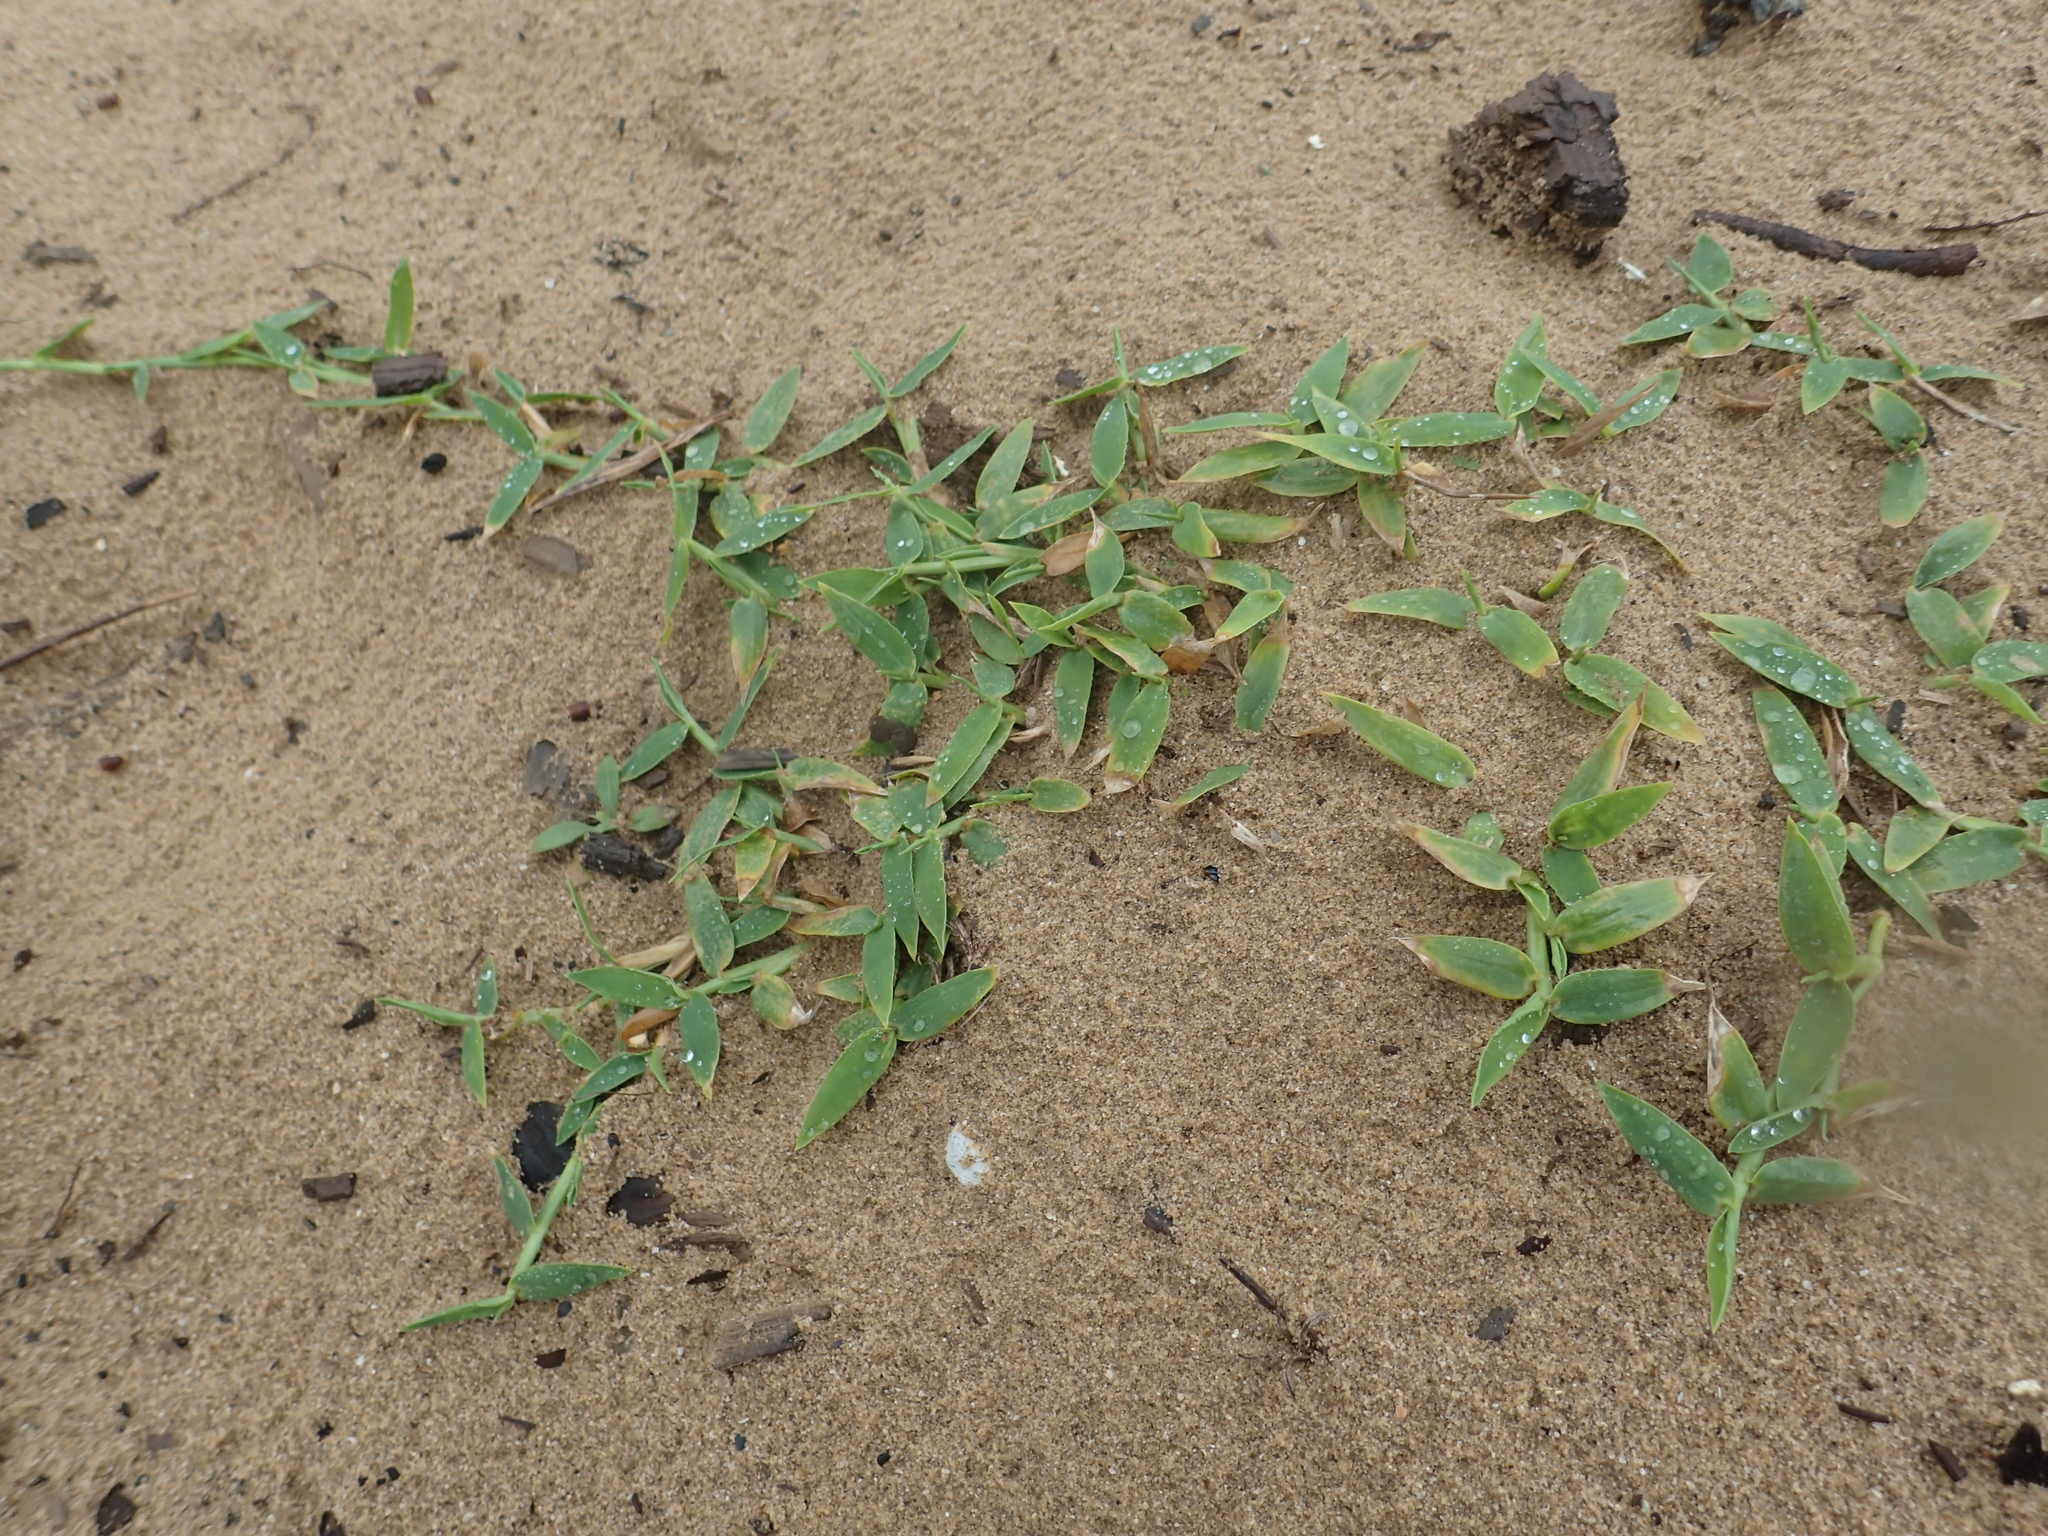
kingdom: Plantae
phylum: Tracheophyta
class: Liliopsida
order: Poales
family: Poaceae
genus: Thuarea
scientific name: Thuarea involuta
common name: Tropical beach grass
